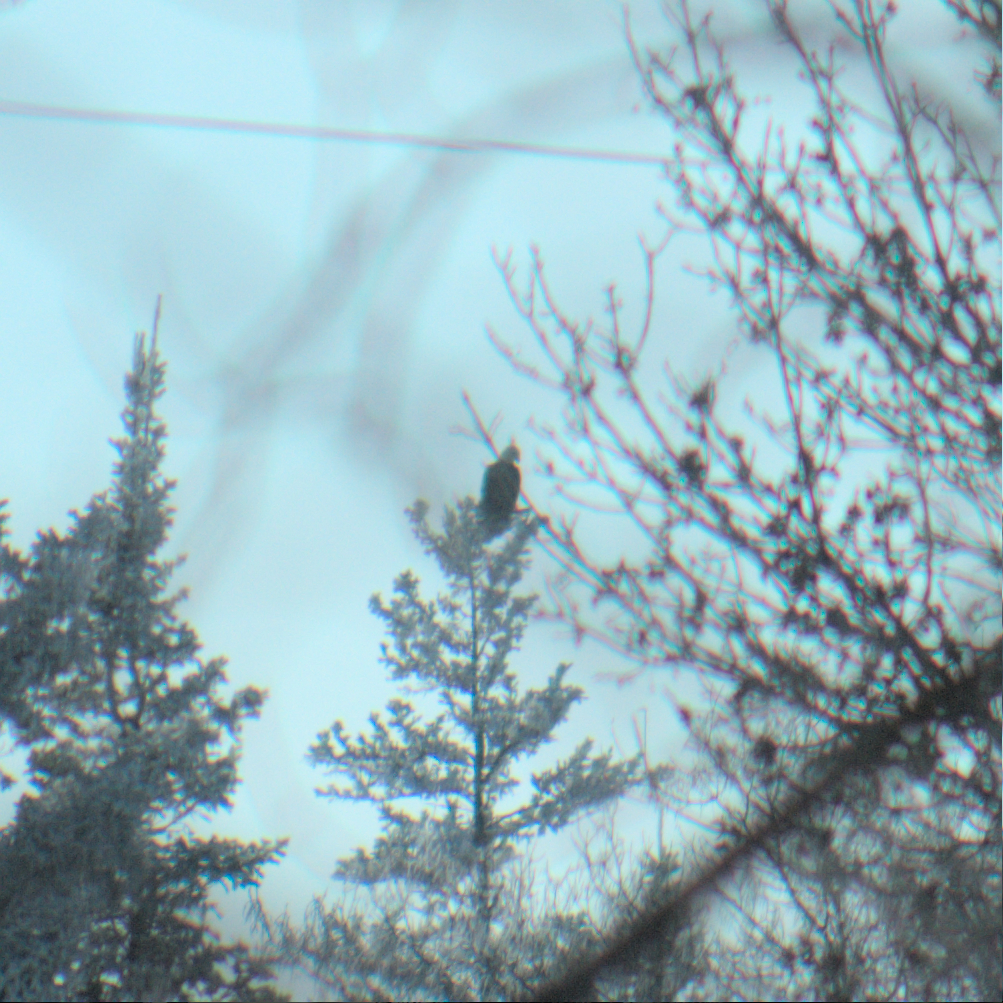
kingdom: Animalia
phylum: Chordata
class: Aves
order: Accipitriformes
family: Accipitridae
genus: Haliaeetus
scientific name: Haliaeetus leucocephalus
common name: Bald eagle
